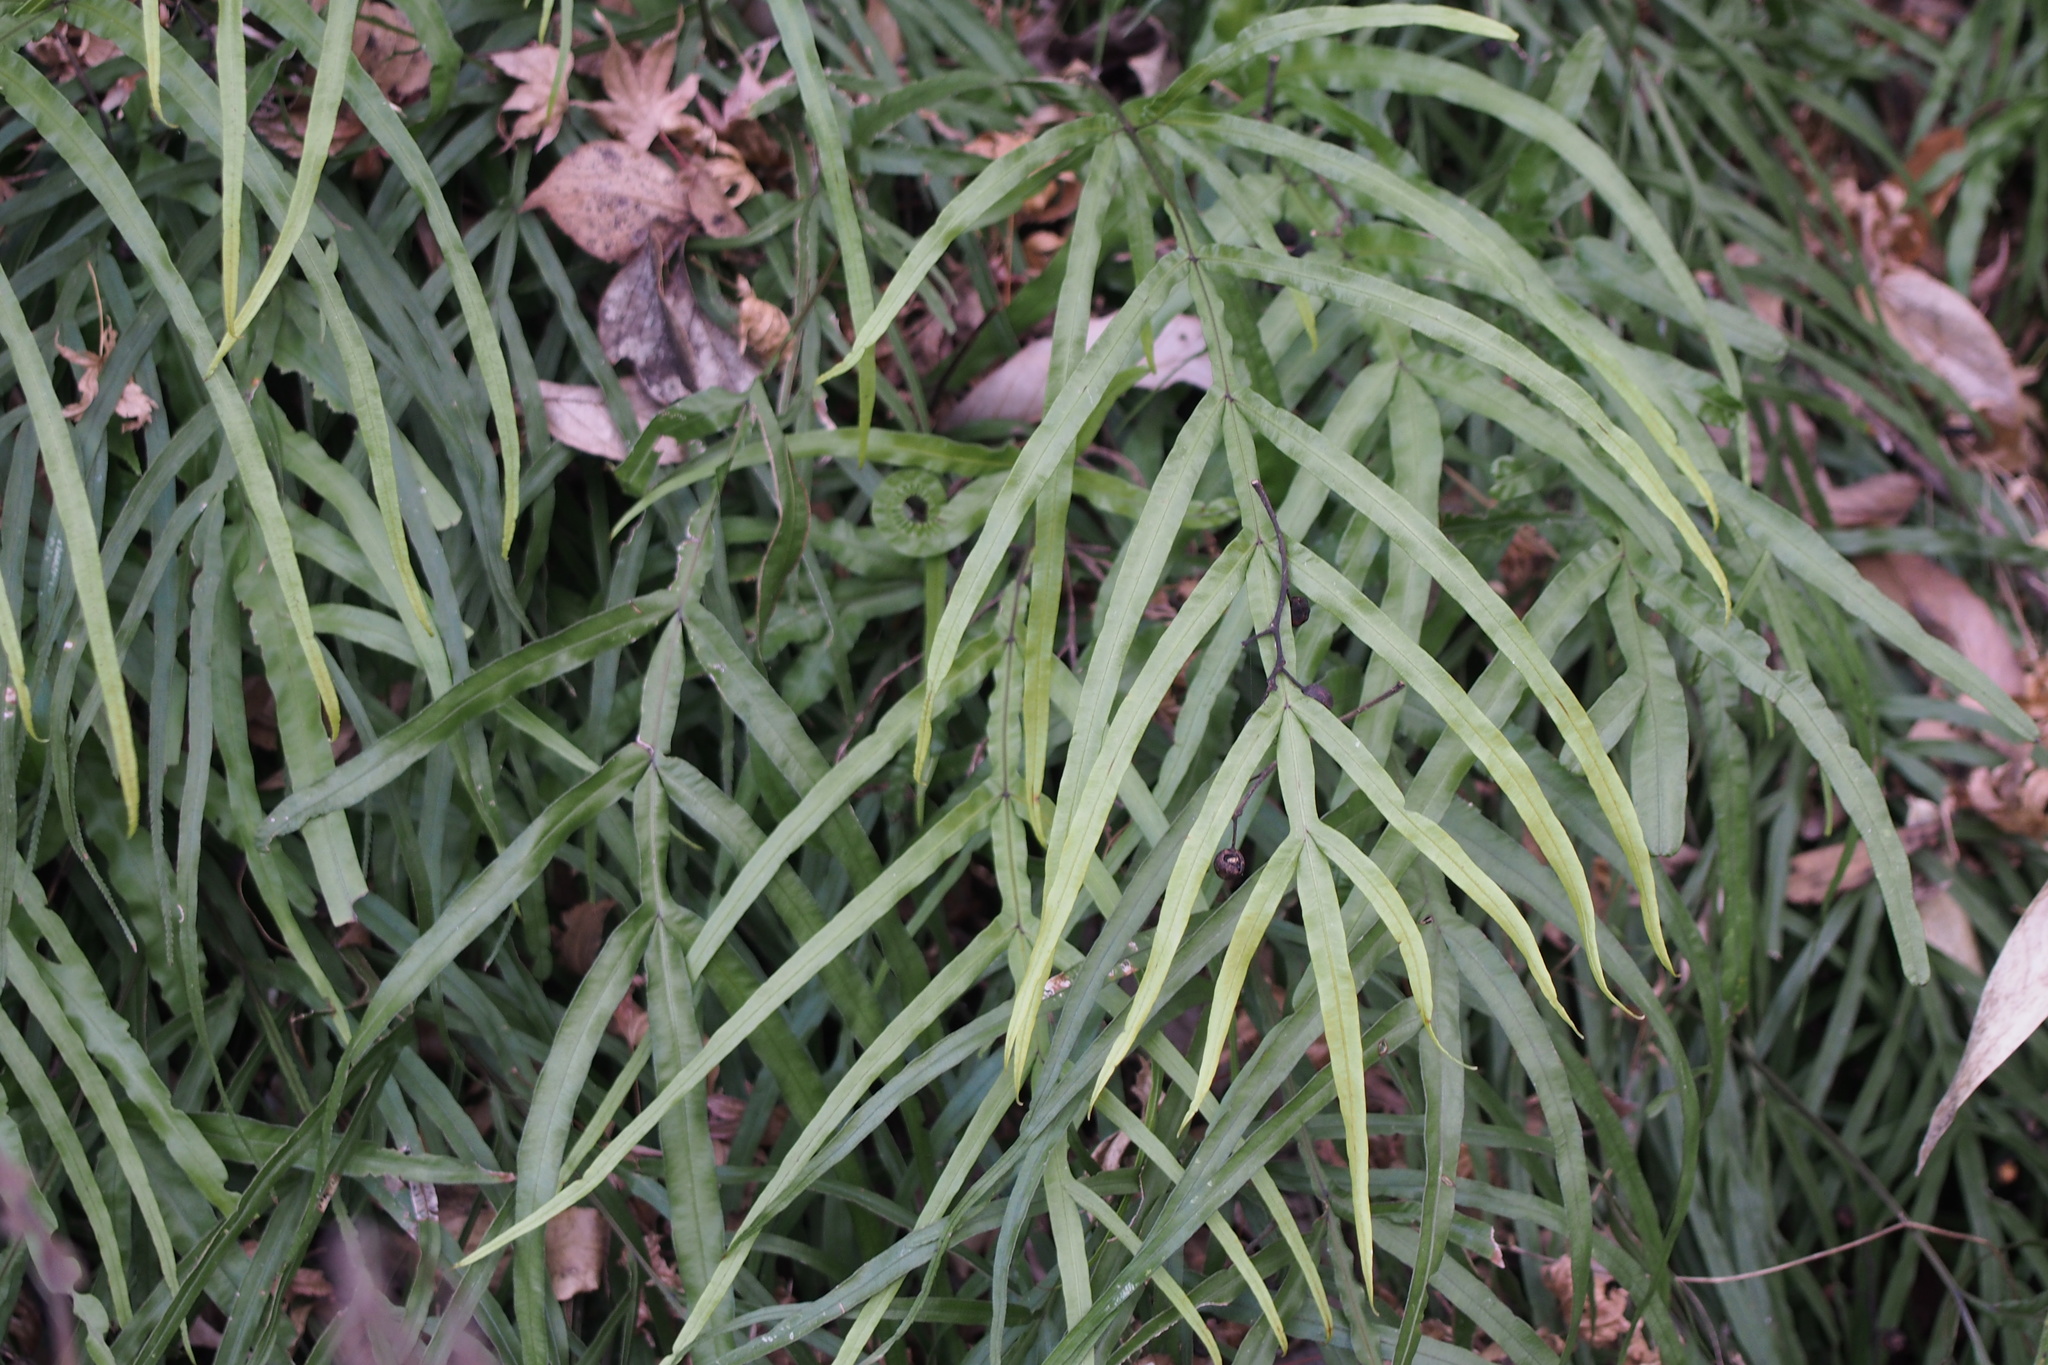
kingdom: Plantae
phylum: Tracheophyta
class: Polypodiopsida
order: Polypodiales
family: Pteridaceae
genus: Pteris
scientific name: Pteris multifida
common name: Spider brake
